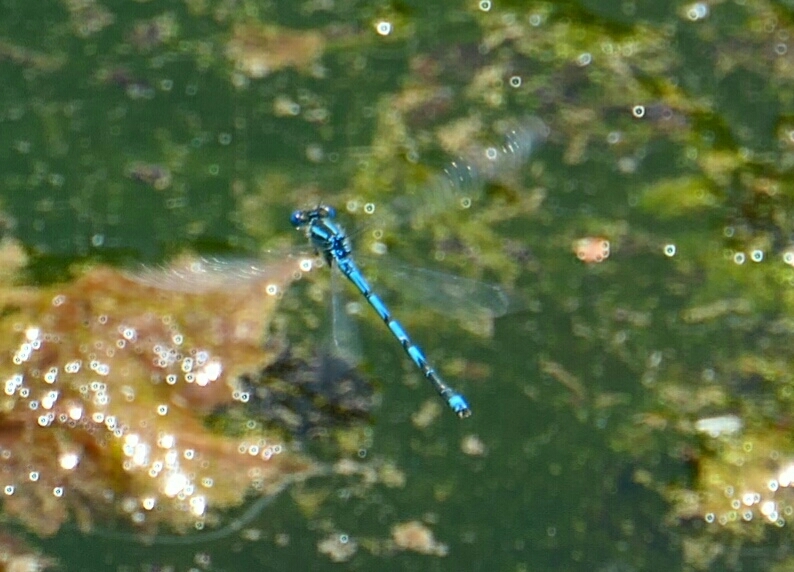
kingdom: Animalia
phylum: Arthropoda
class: Insecta
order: Odonata
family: Coenagrionidae
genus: Erythromma
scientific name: Erythromma lindenii
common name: Blue-eye
